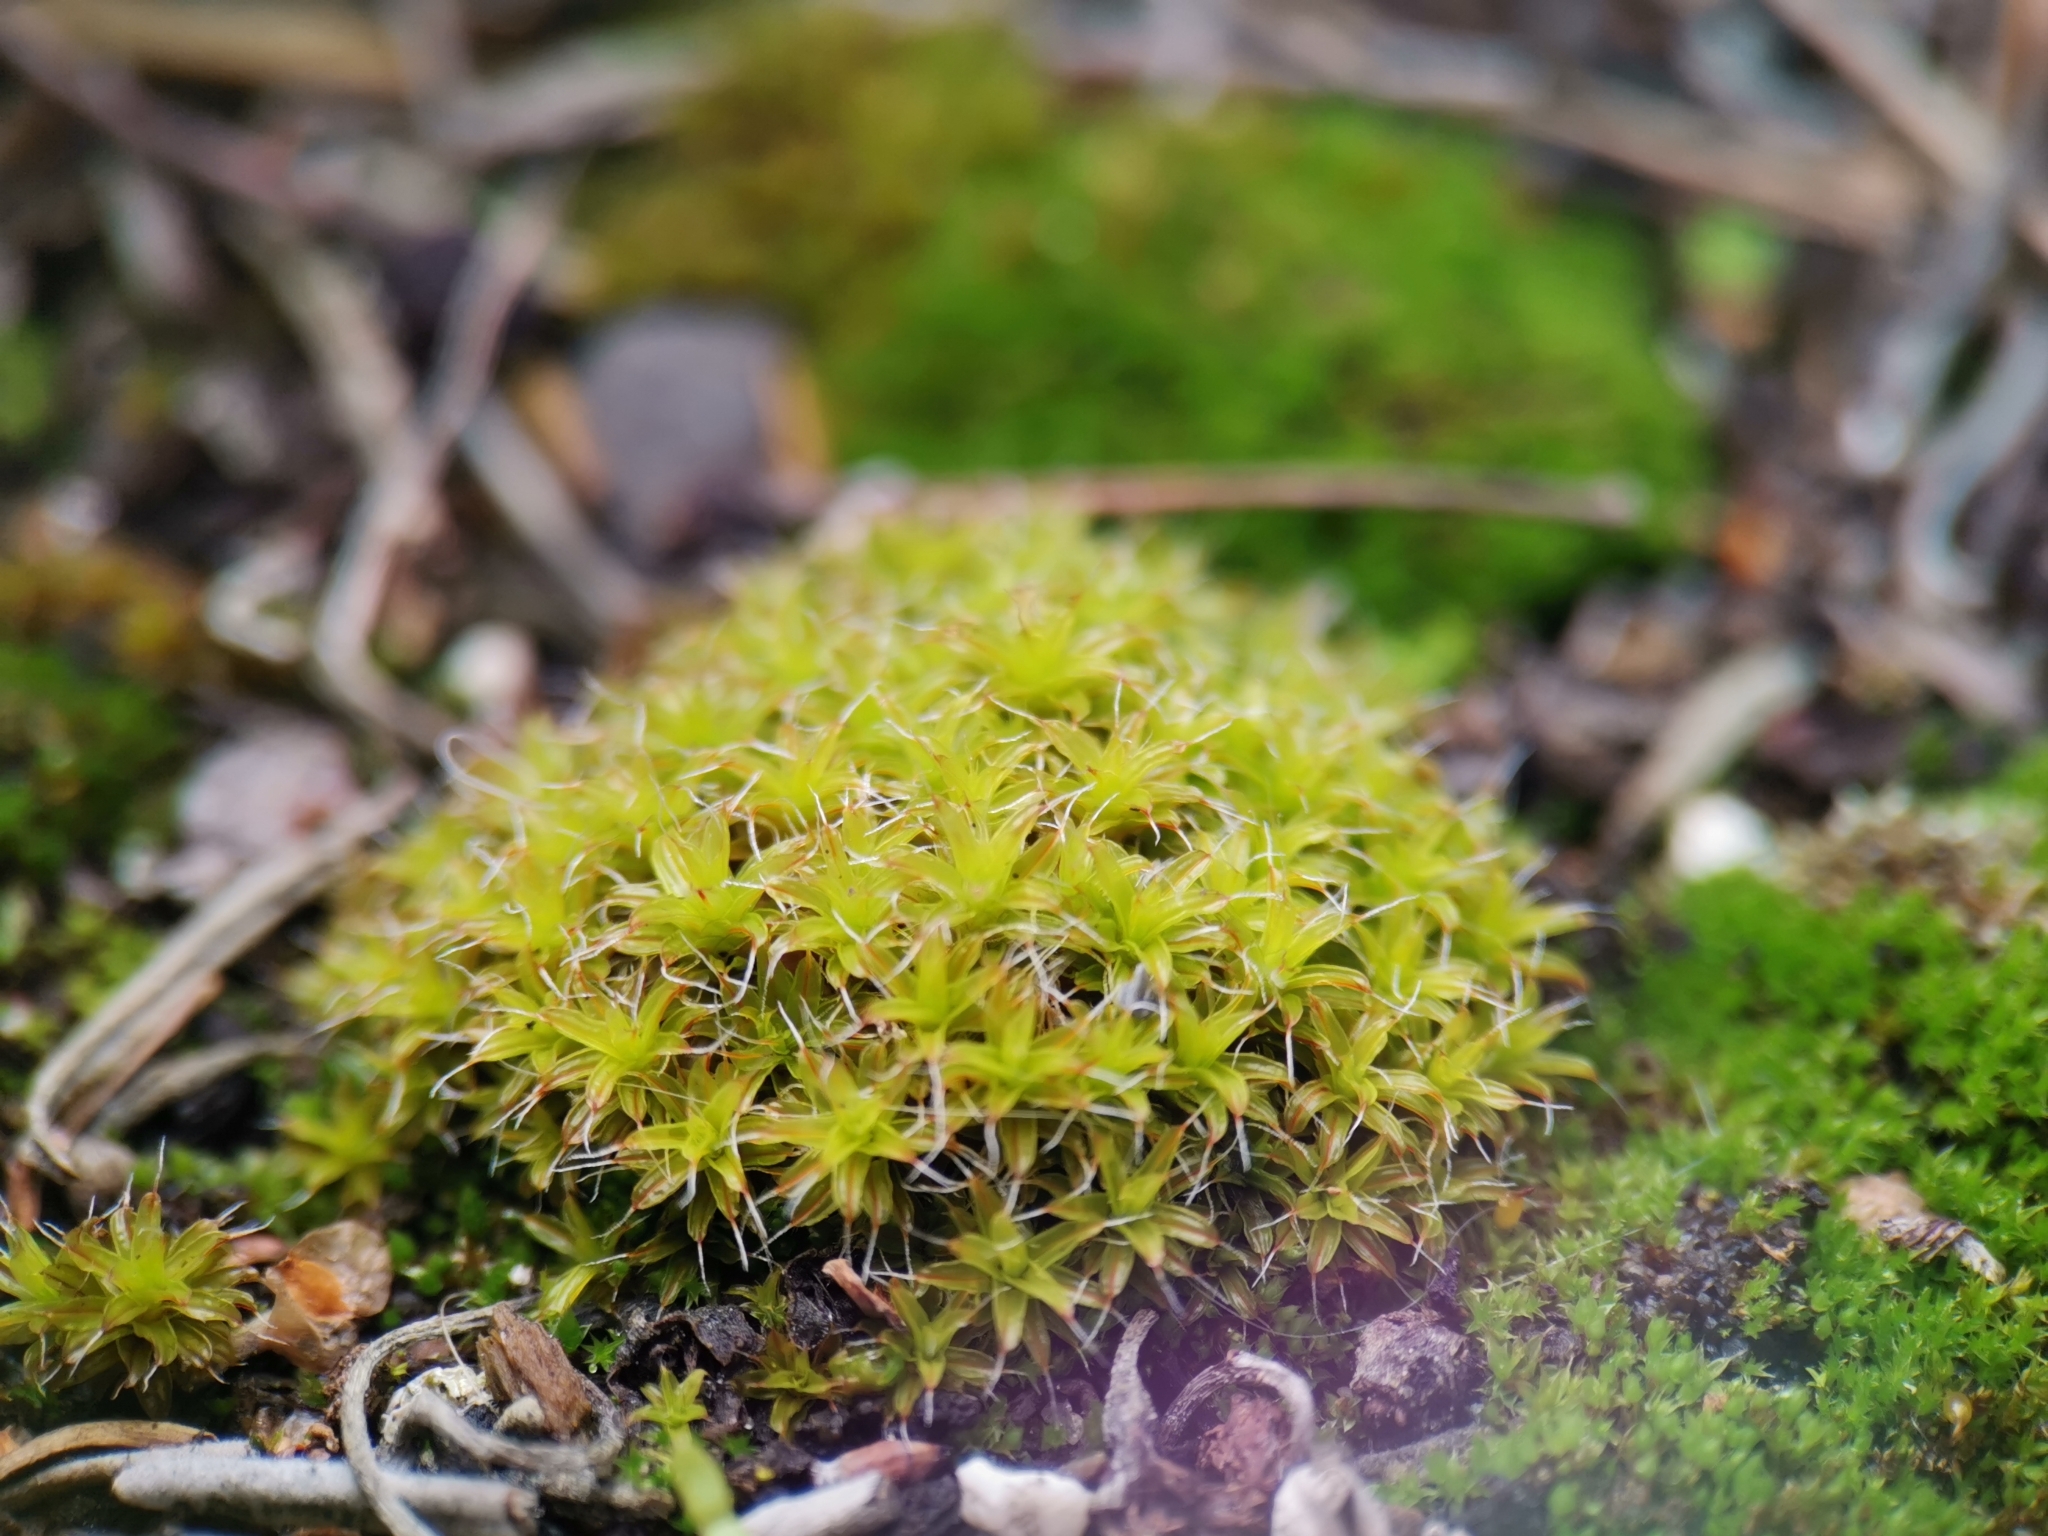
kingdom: Plantae
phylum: Bryophyta
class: Bryopsida
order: Pottiales
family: Pottiaceae
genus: Syntrichia
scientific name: Syntrichia ruralis
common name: Sidewalk screw moss
